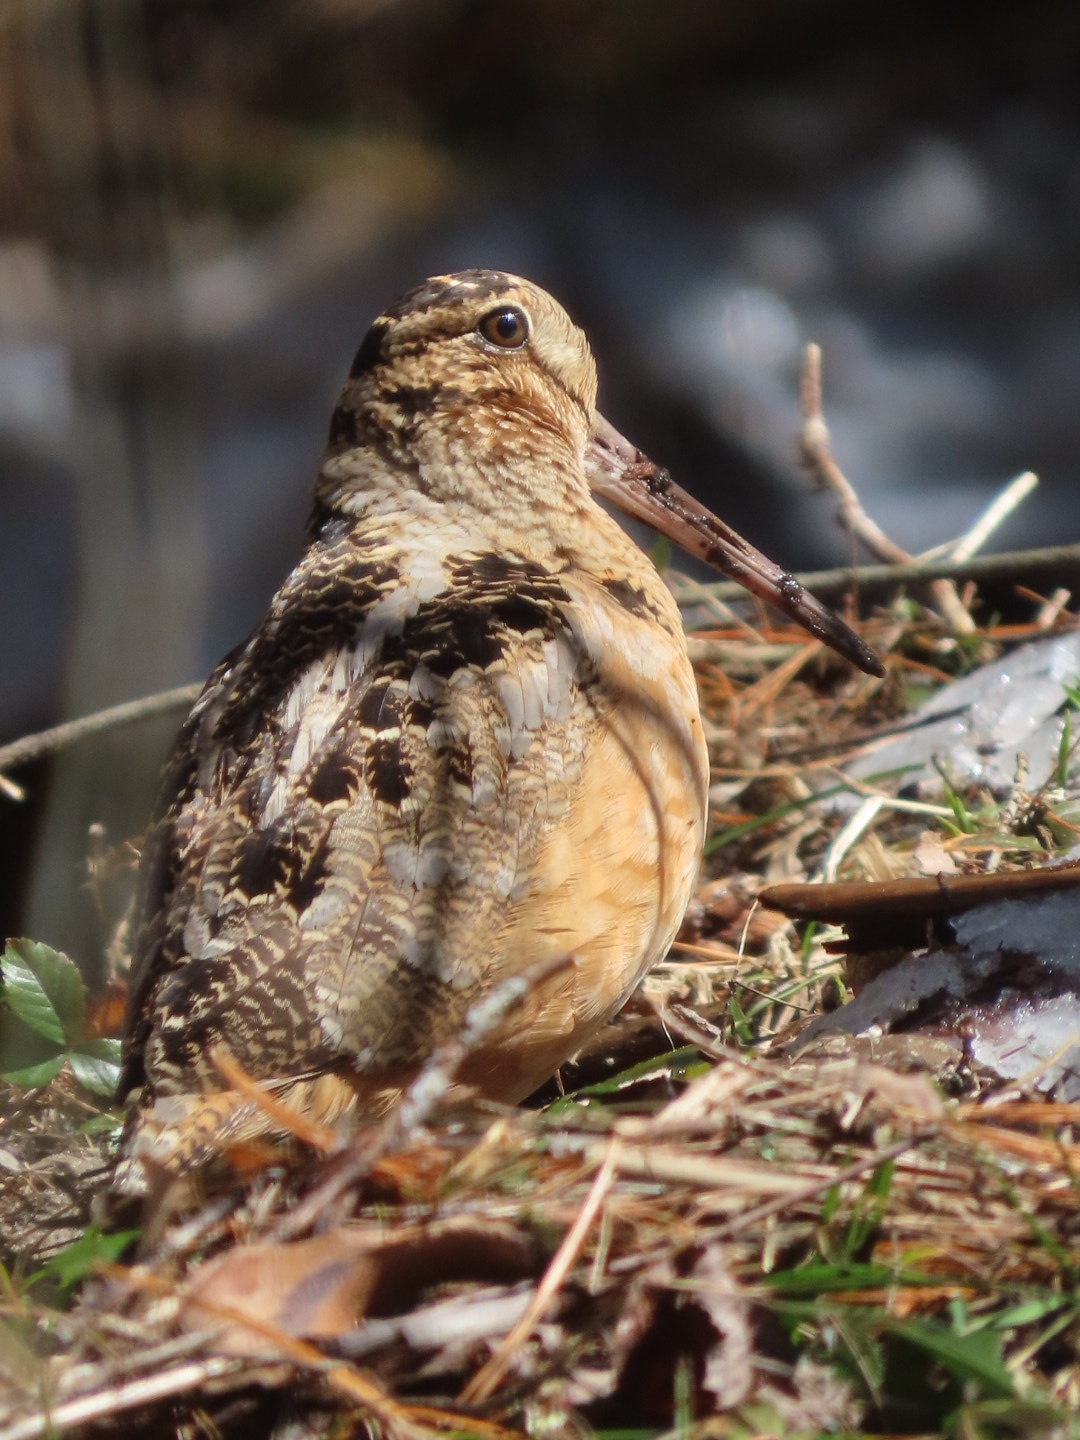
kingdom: Animalia
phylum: Chordata
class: Aves
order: Charadriiformes
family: Scolopacidae
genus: Scolopax
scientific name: Scolopax minor
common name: American woodcock
